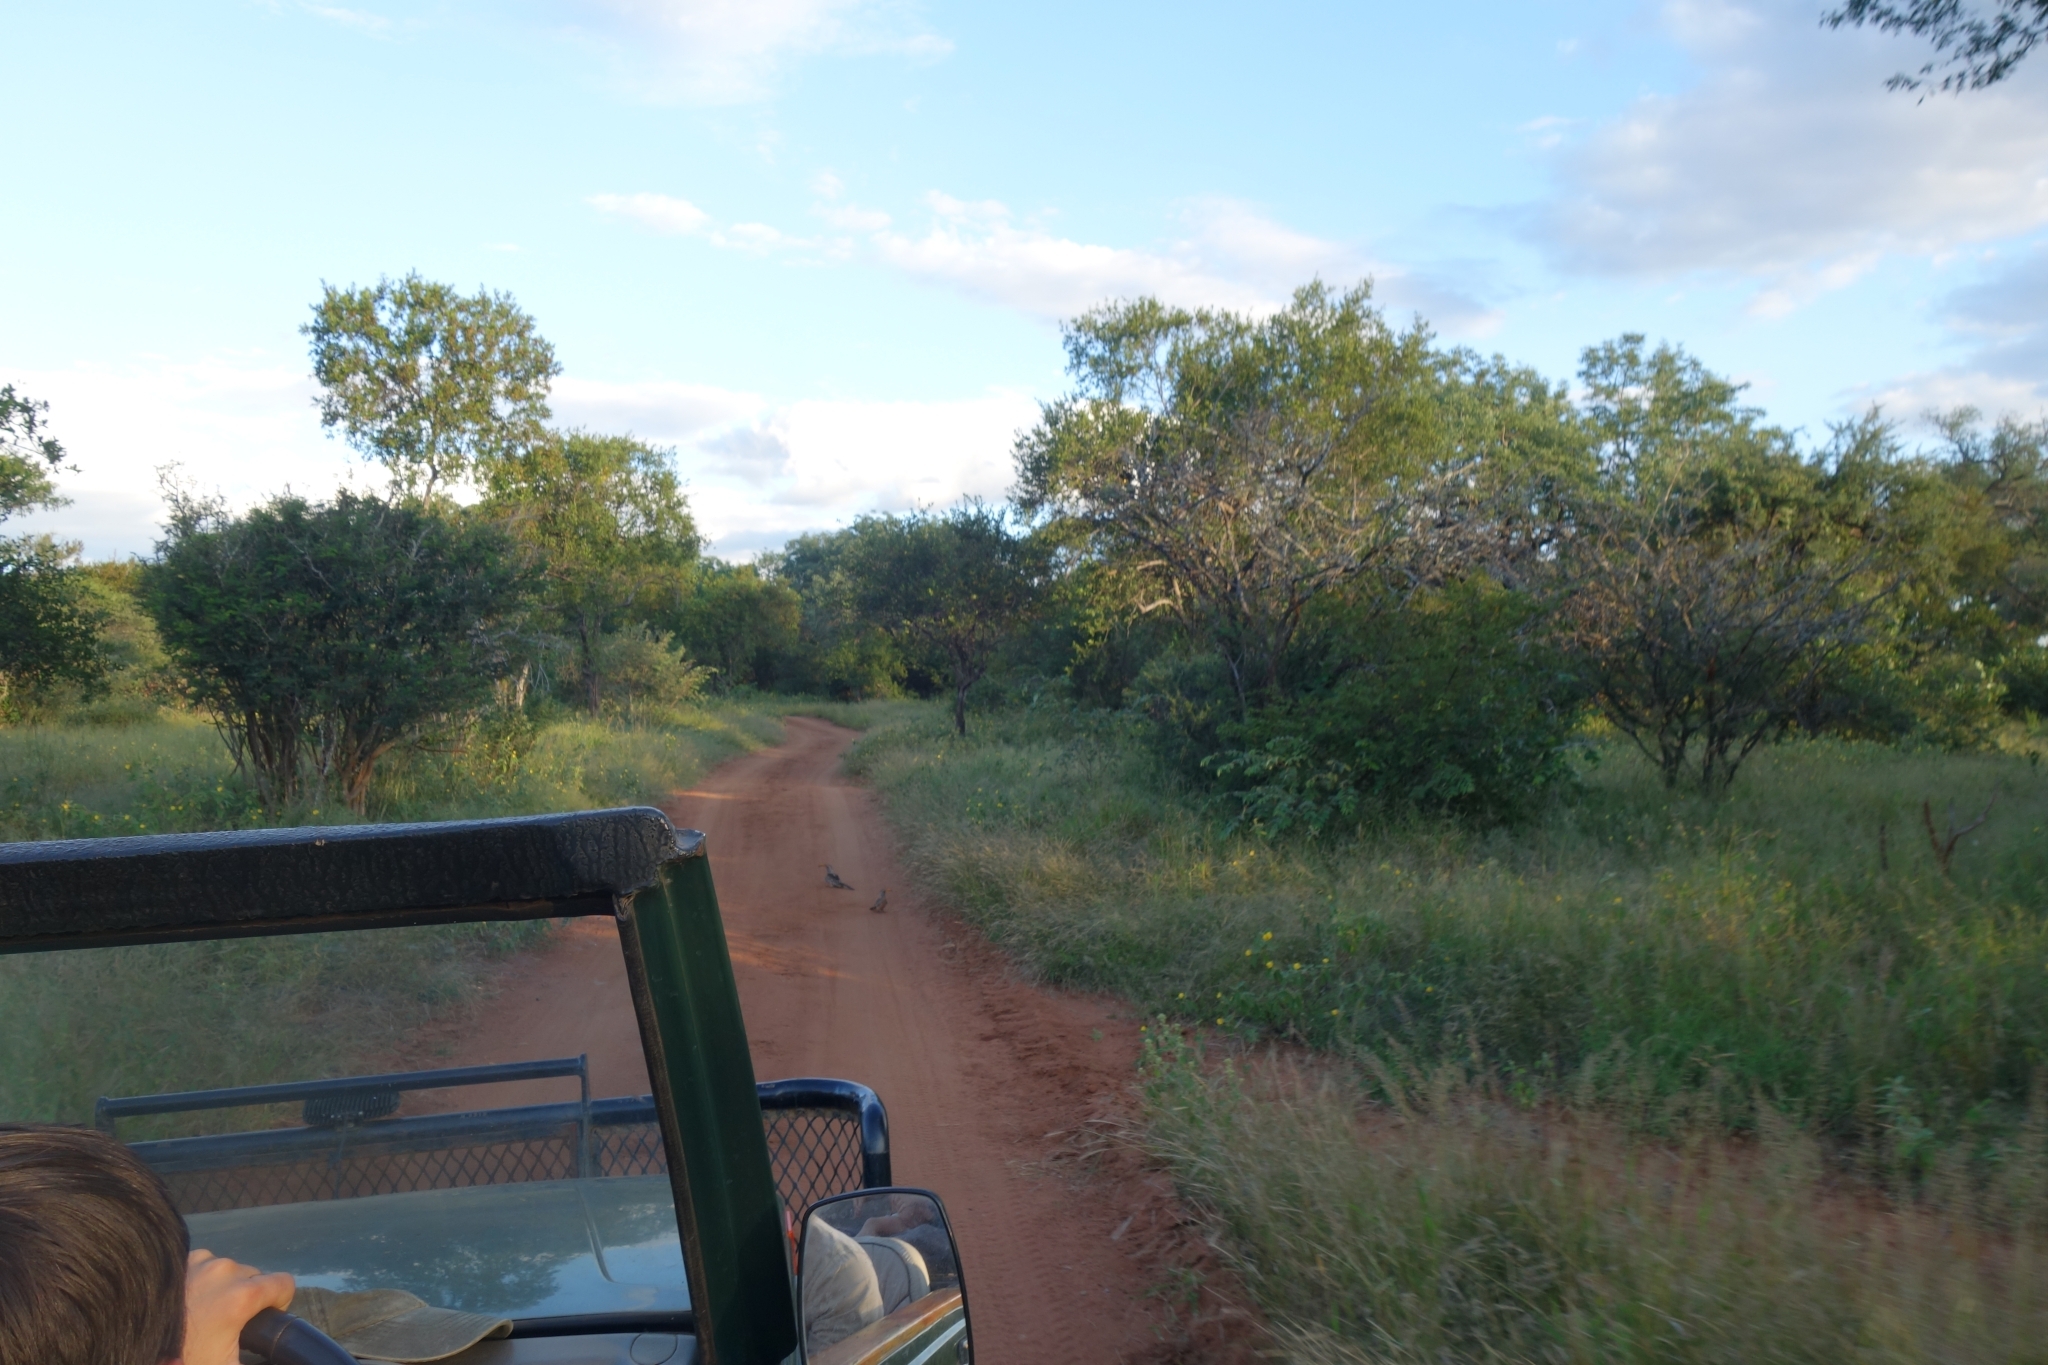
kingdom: Animalia
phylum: Chordata
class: Aves
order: Bucerotiformes
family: Bucerotidae
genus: Tockus
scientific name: Tockus leucomelas
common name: Southern yellow-billed hornbill
